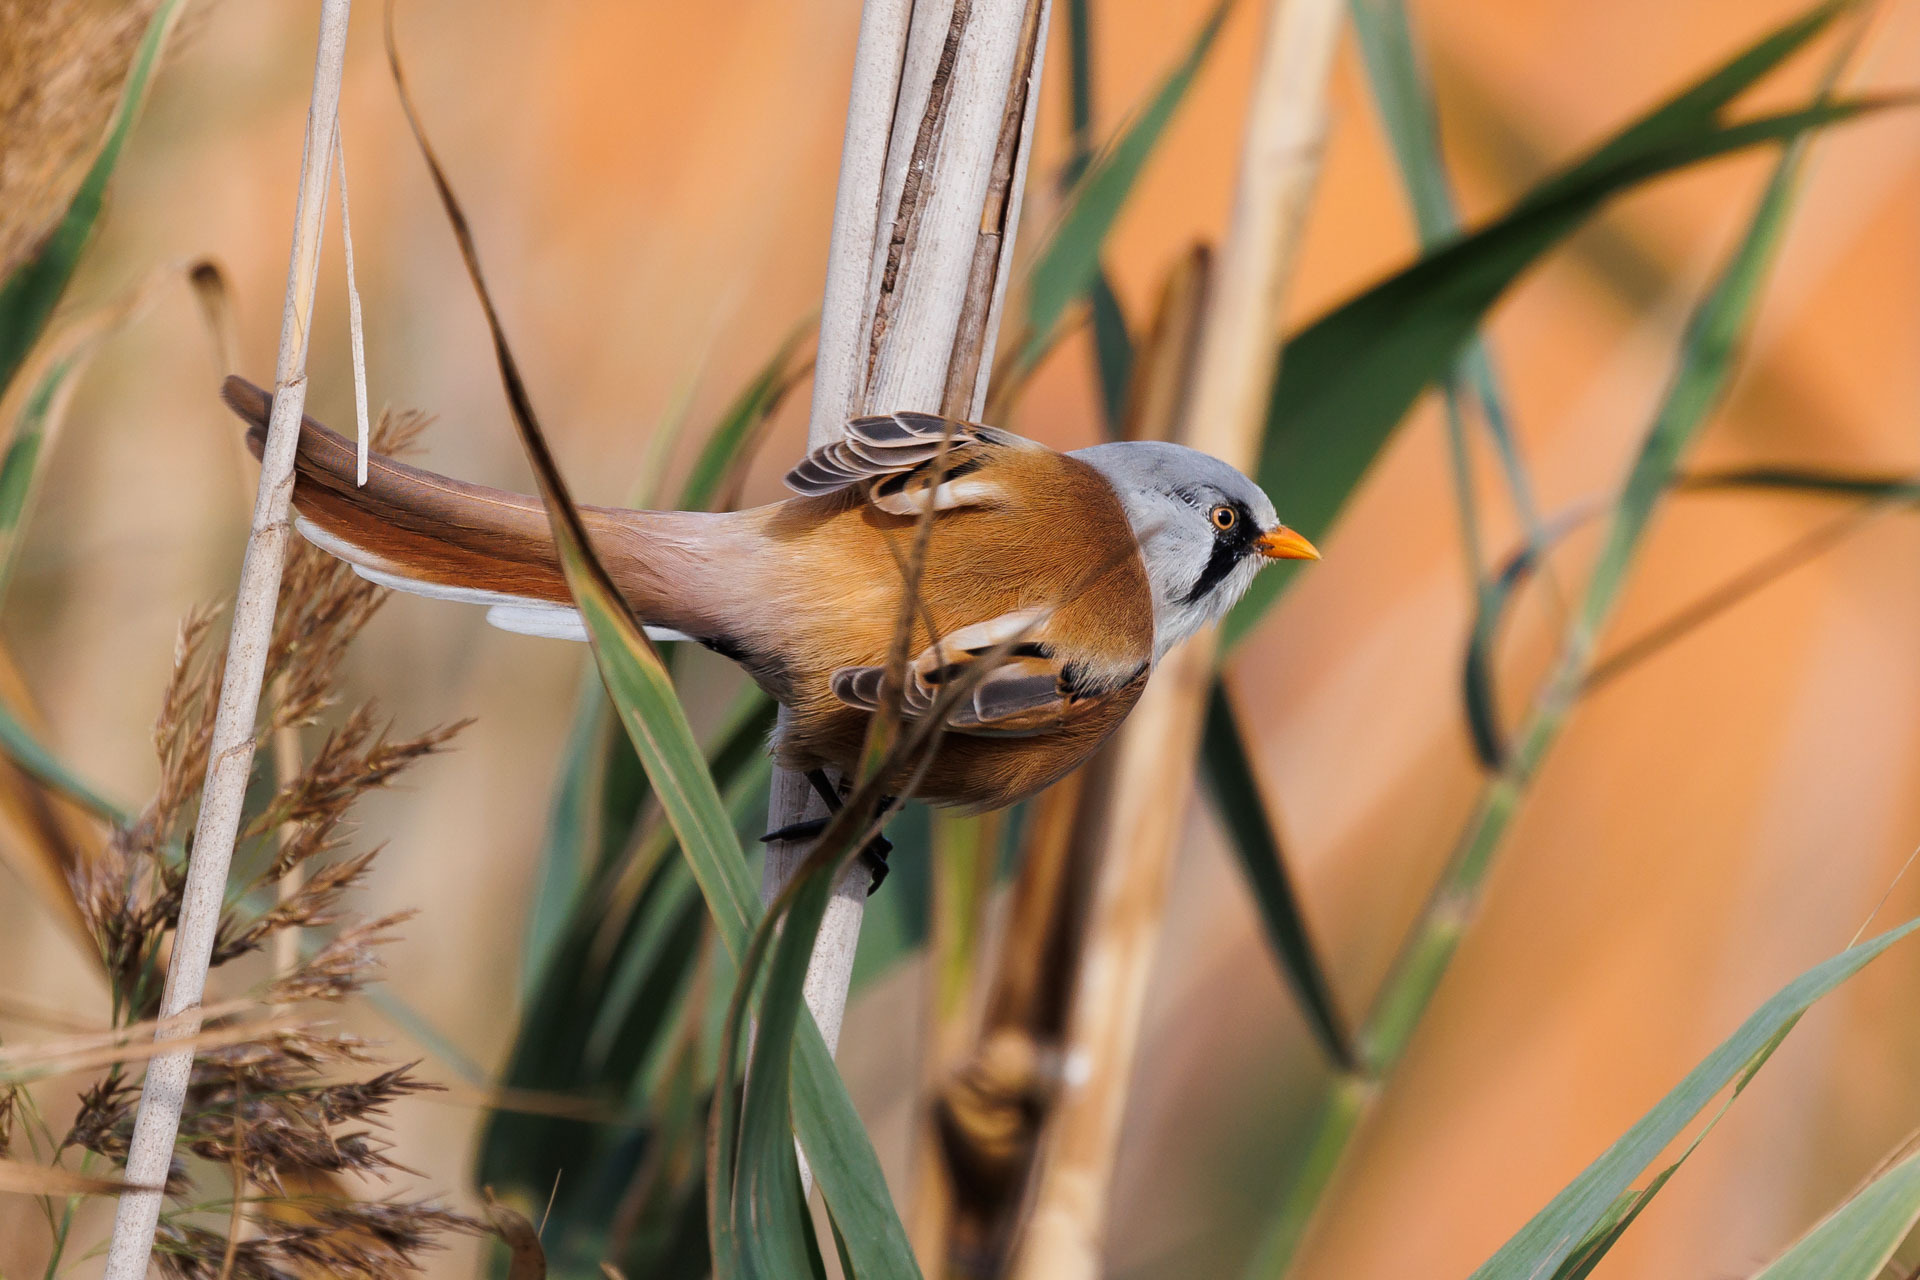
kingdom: Animalia
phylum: Chordata
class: Aves
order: Passeriformes
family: Panuridae
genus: Panurus
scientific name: Panurus biarmicus
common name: Bearded reedling
